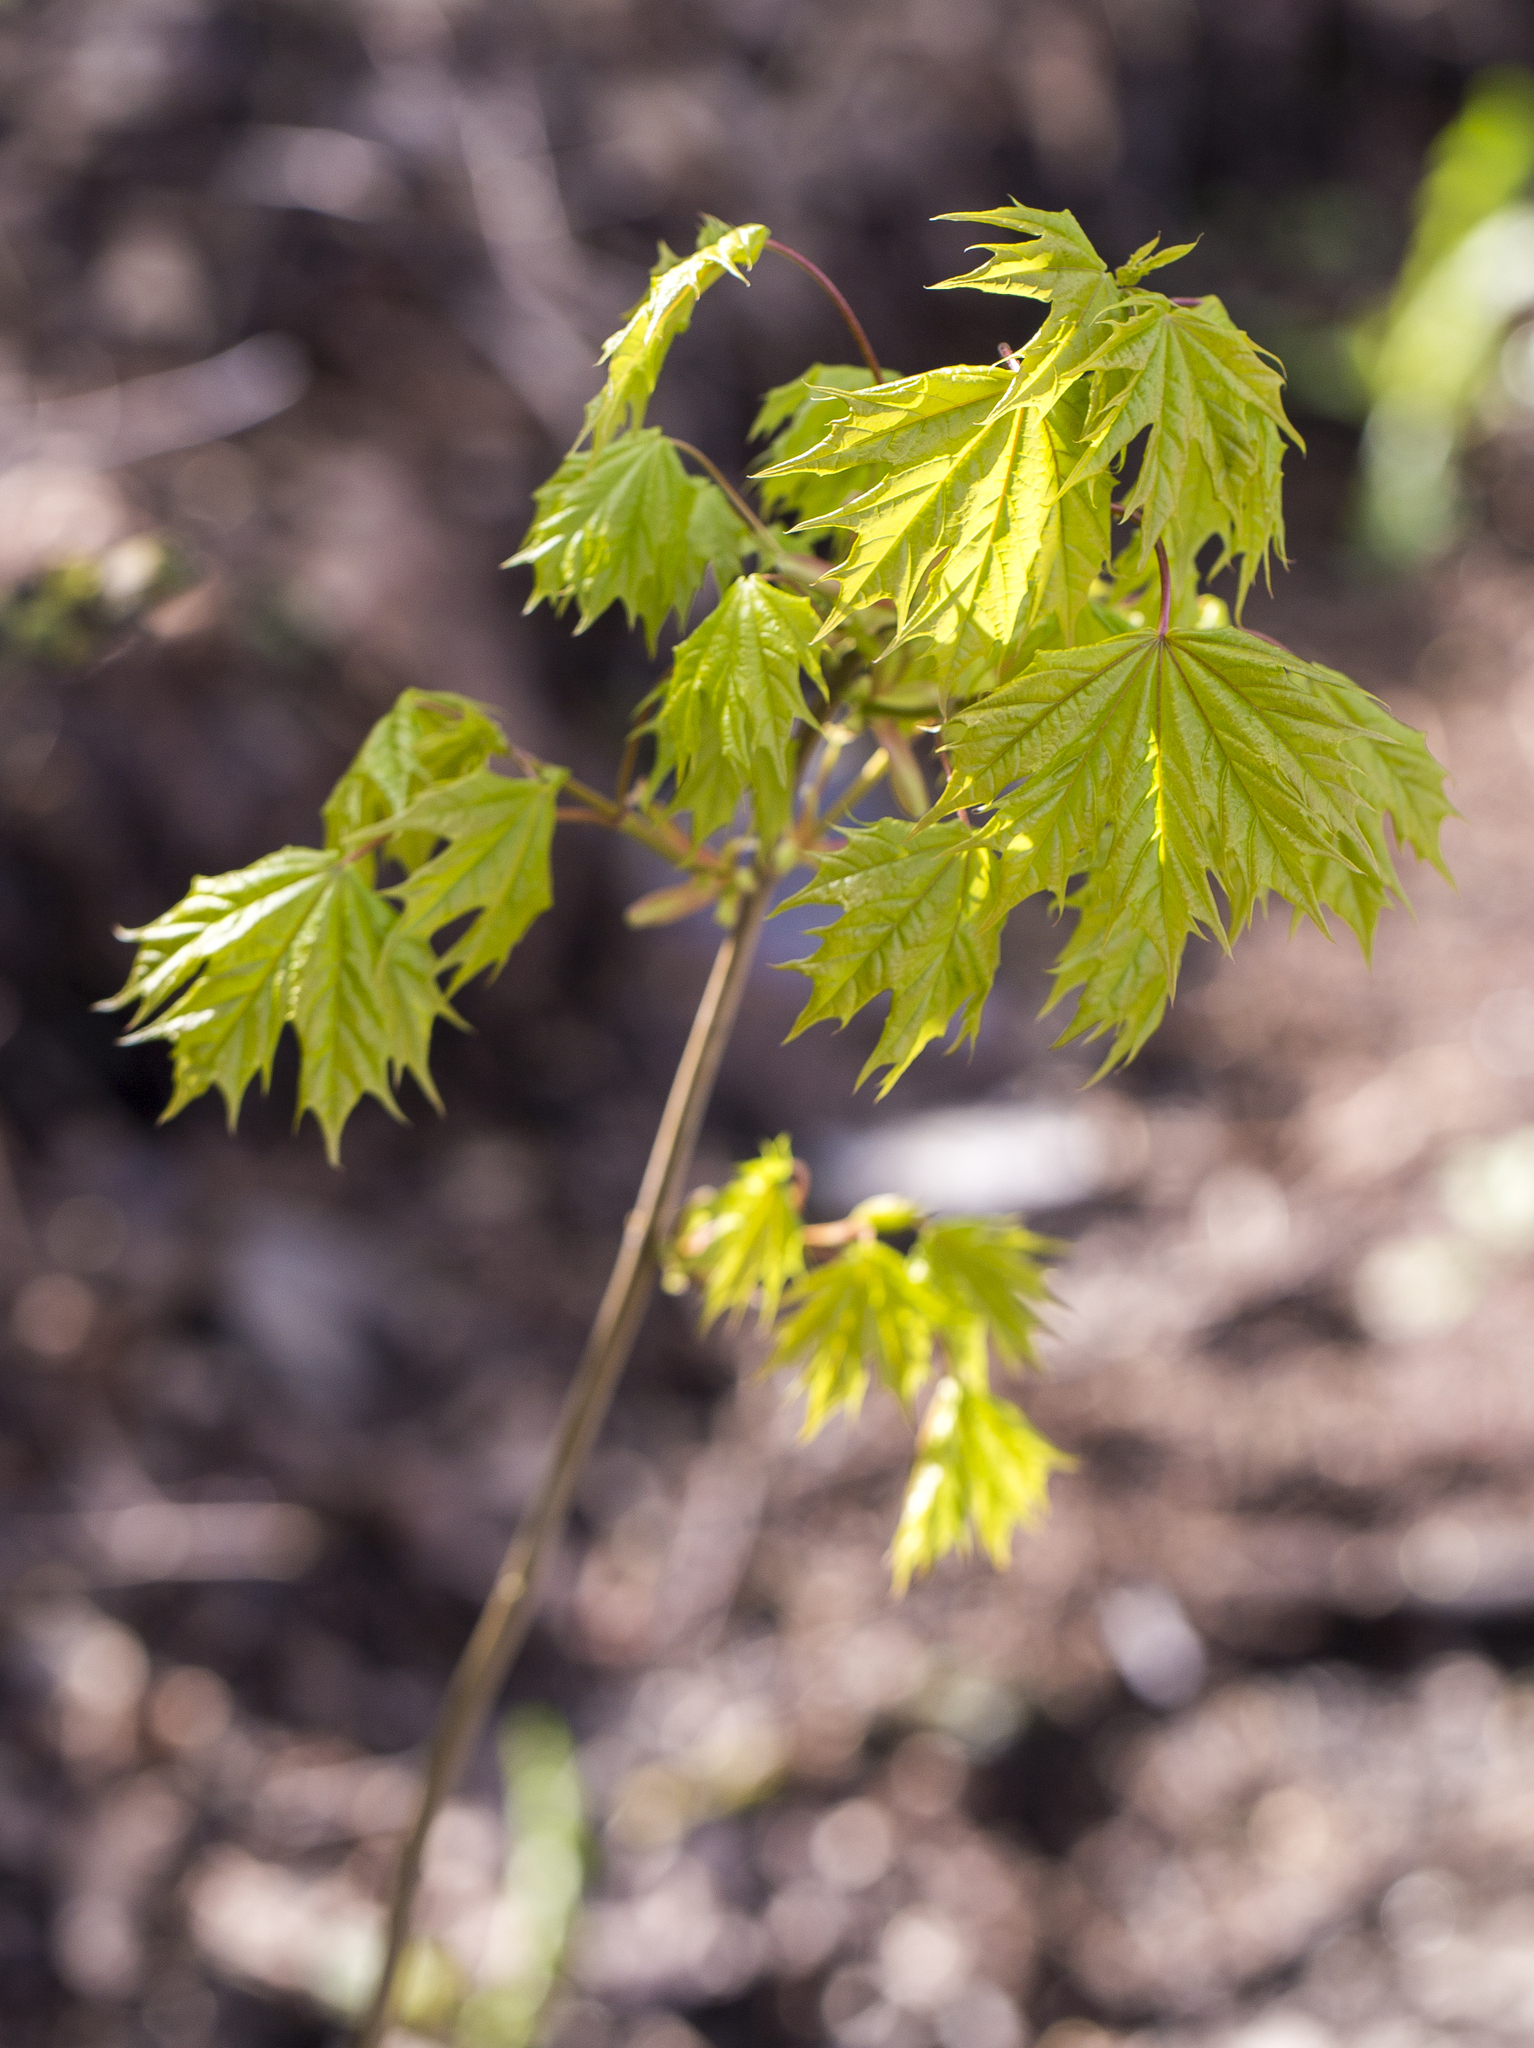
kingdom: Plantae
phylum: Tracheophyta
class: Magnoliopsida
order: Sapindales
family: Sapindaceae
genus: Acer
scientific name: Acer platanoides
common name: Norway maple
